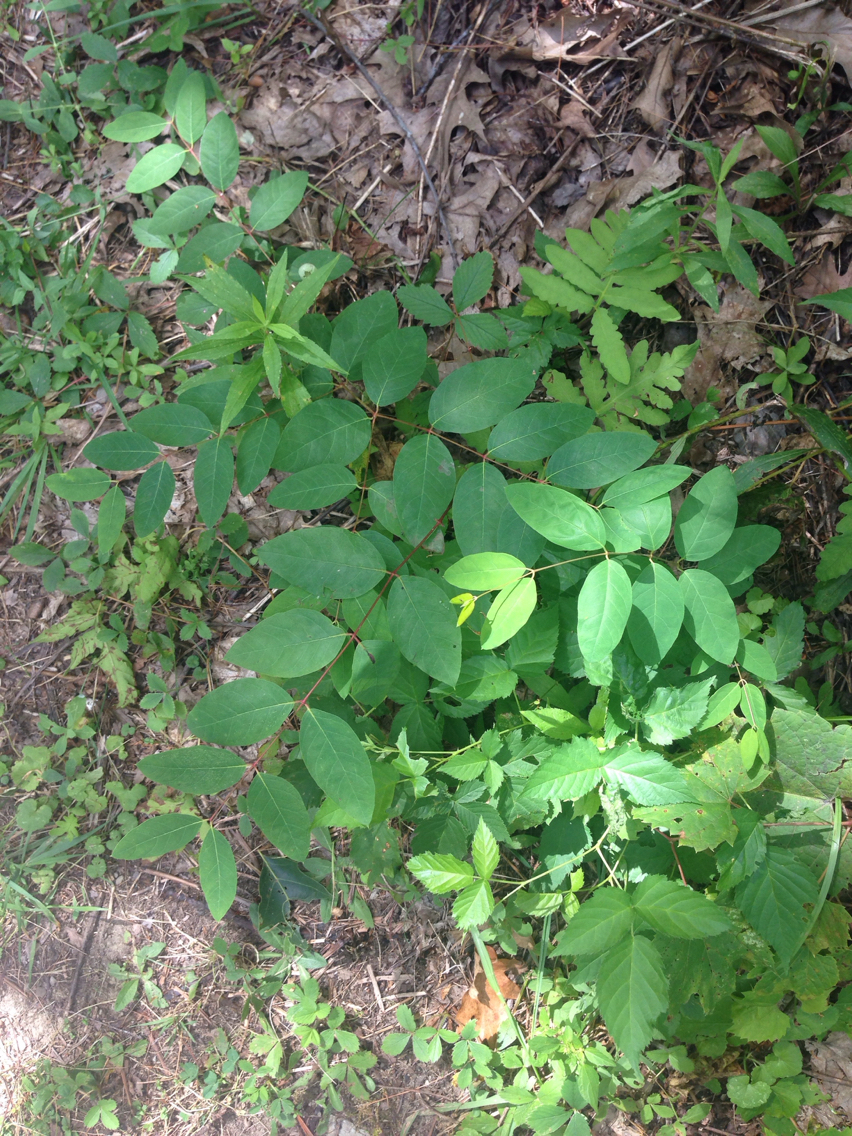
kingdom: Plantae
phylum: Tracheophyta
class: Magnoliopsida
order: Gentianales
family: Apocynaceae
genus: Apocynum
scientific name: Apocynum androsaemifolium
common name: Spreading dogbane
